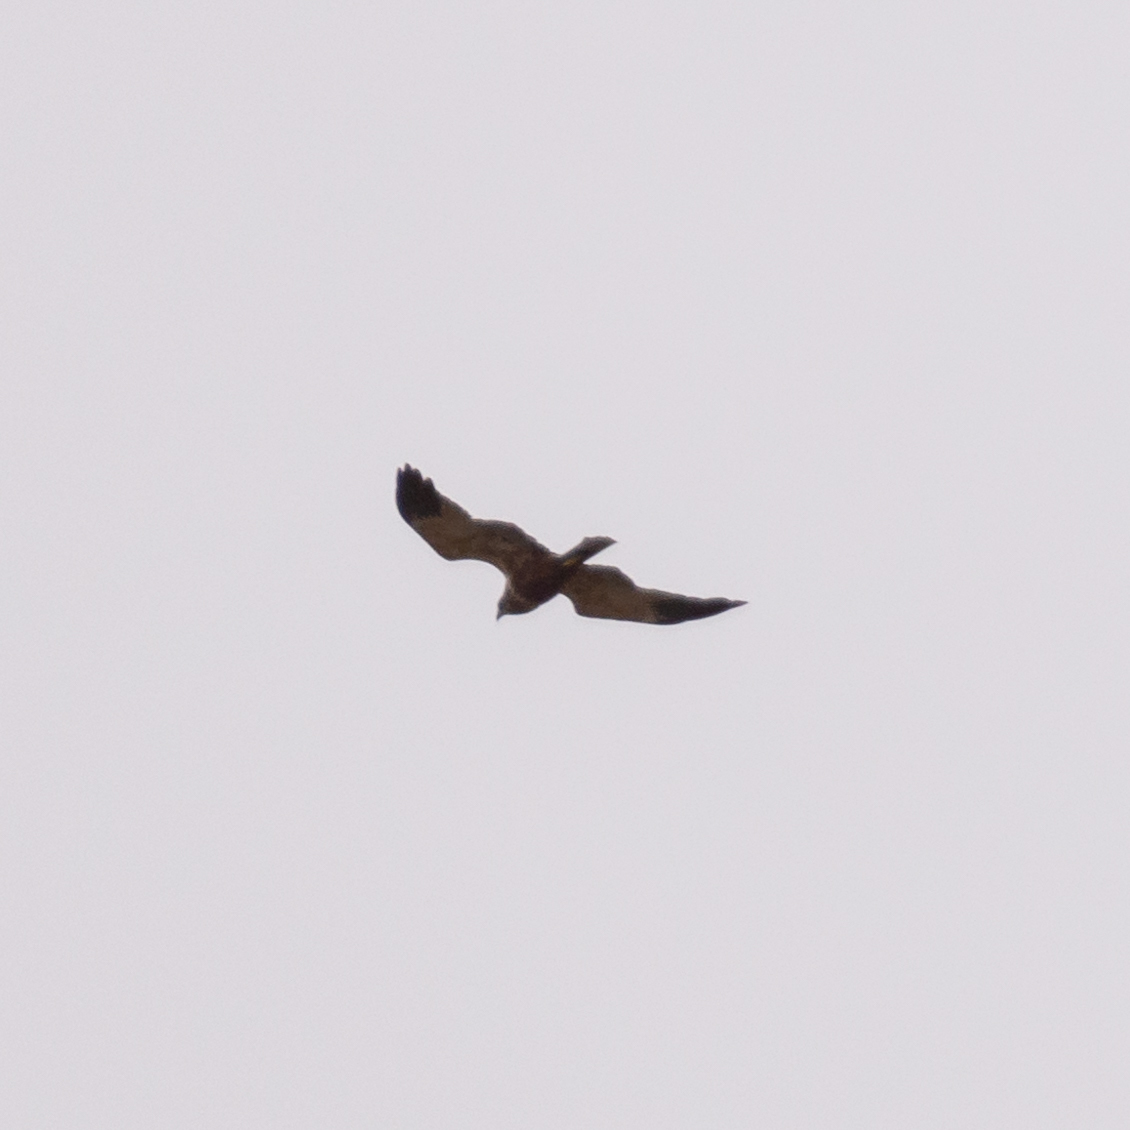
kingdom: Animalia
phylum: Chordata
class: Aves
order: Accipitriformes
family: Accipitridae
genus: Circus
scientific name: Circus aeruginosus
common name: Western marsh harrier
